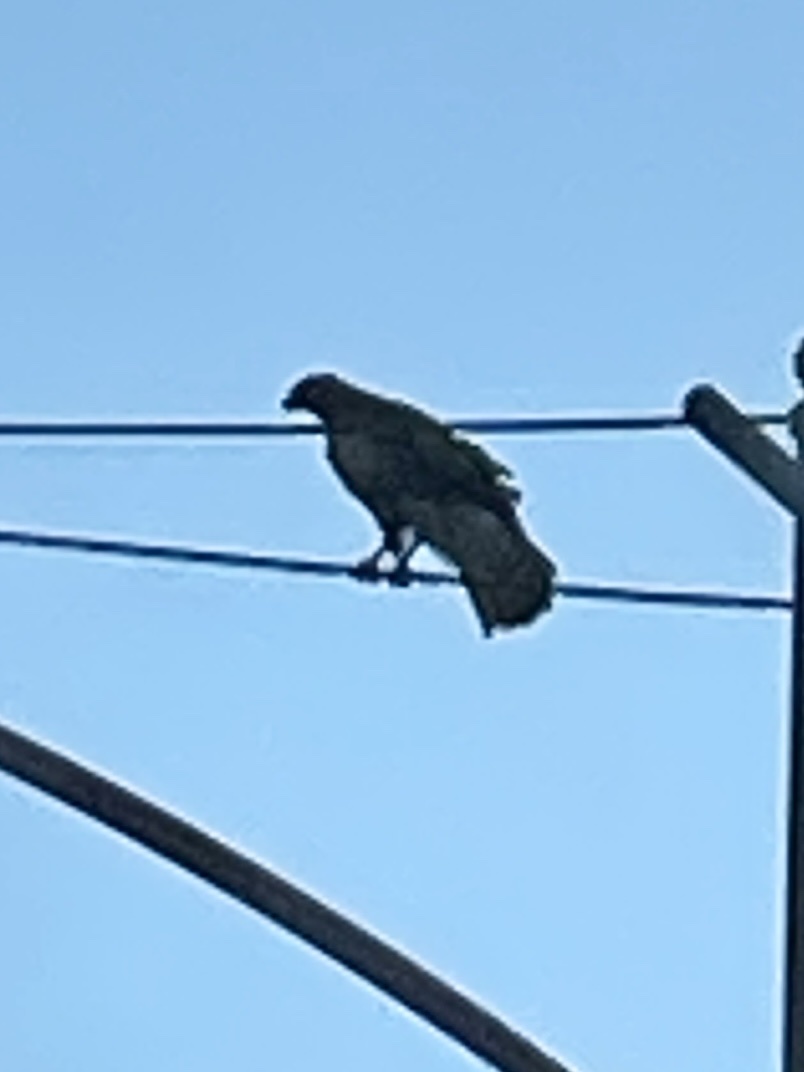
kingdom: Animalia
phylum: Chordata
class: Aves
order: Accipitriformes
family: Accipitridae
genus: Buteo
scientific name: Buteo jamaicensis
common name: Red-tailed hawk
